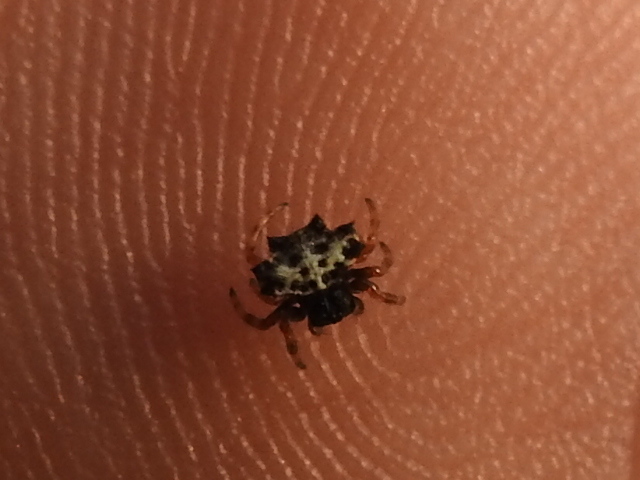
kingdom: Animalia
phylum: Arthropoda
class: Arachnida
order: Araneae
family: Araneidae
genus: Gasteracantha
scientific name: Gasteracantha cancriformis
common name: Orb weavers
